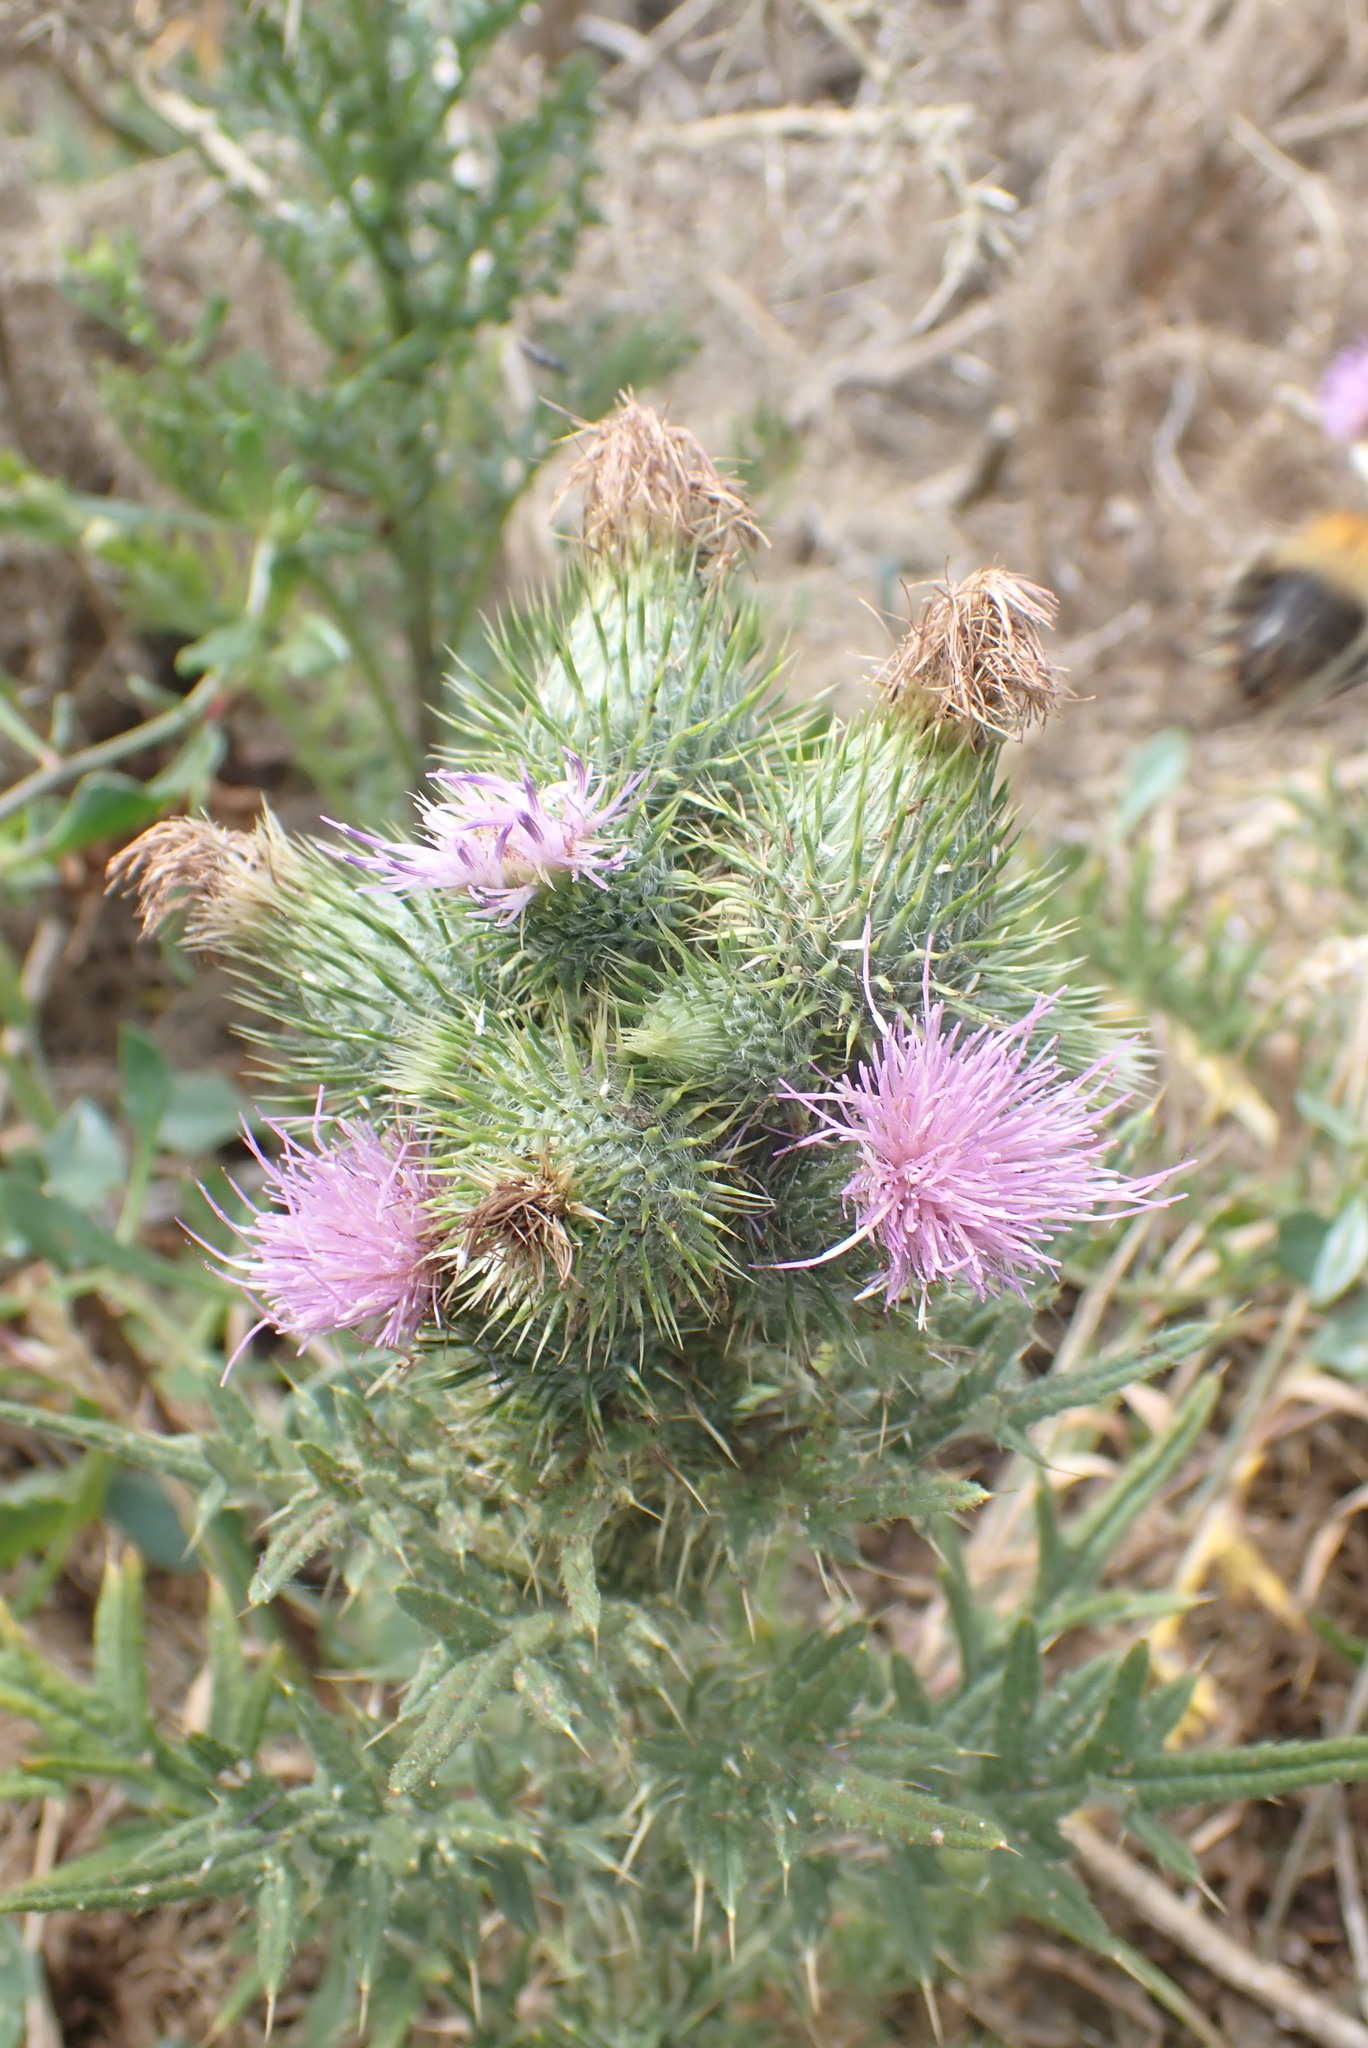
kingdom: Plantae
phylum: Tracheophyta
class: Magnoliopsida
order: Asterales
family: Asteraceae
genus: Cirsium
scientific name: Cirsium vulgare
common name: Bull thistle
